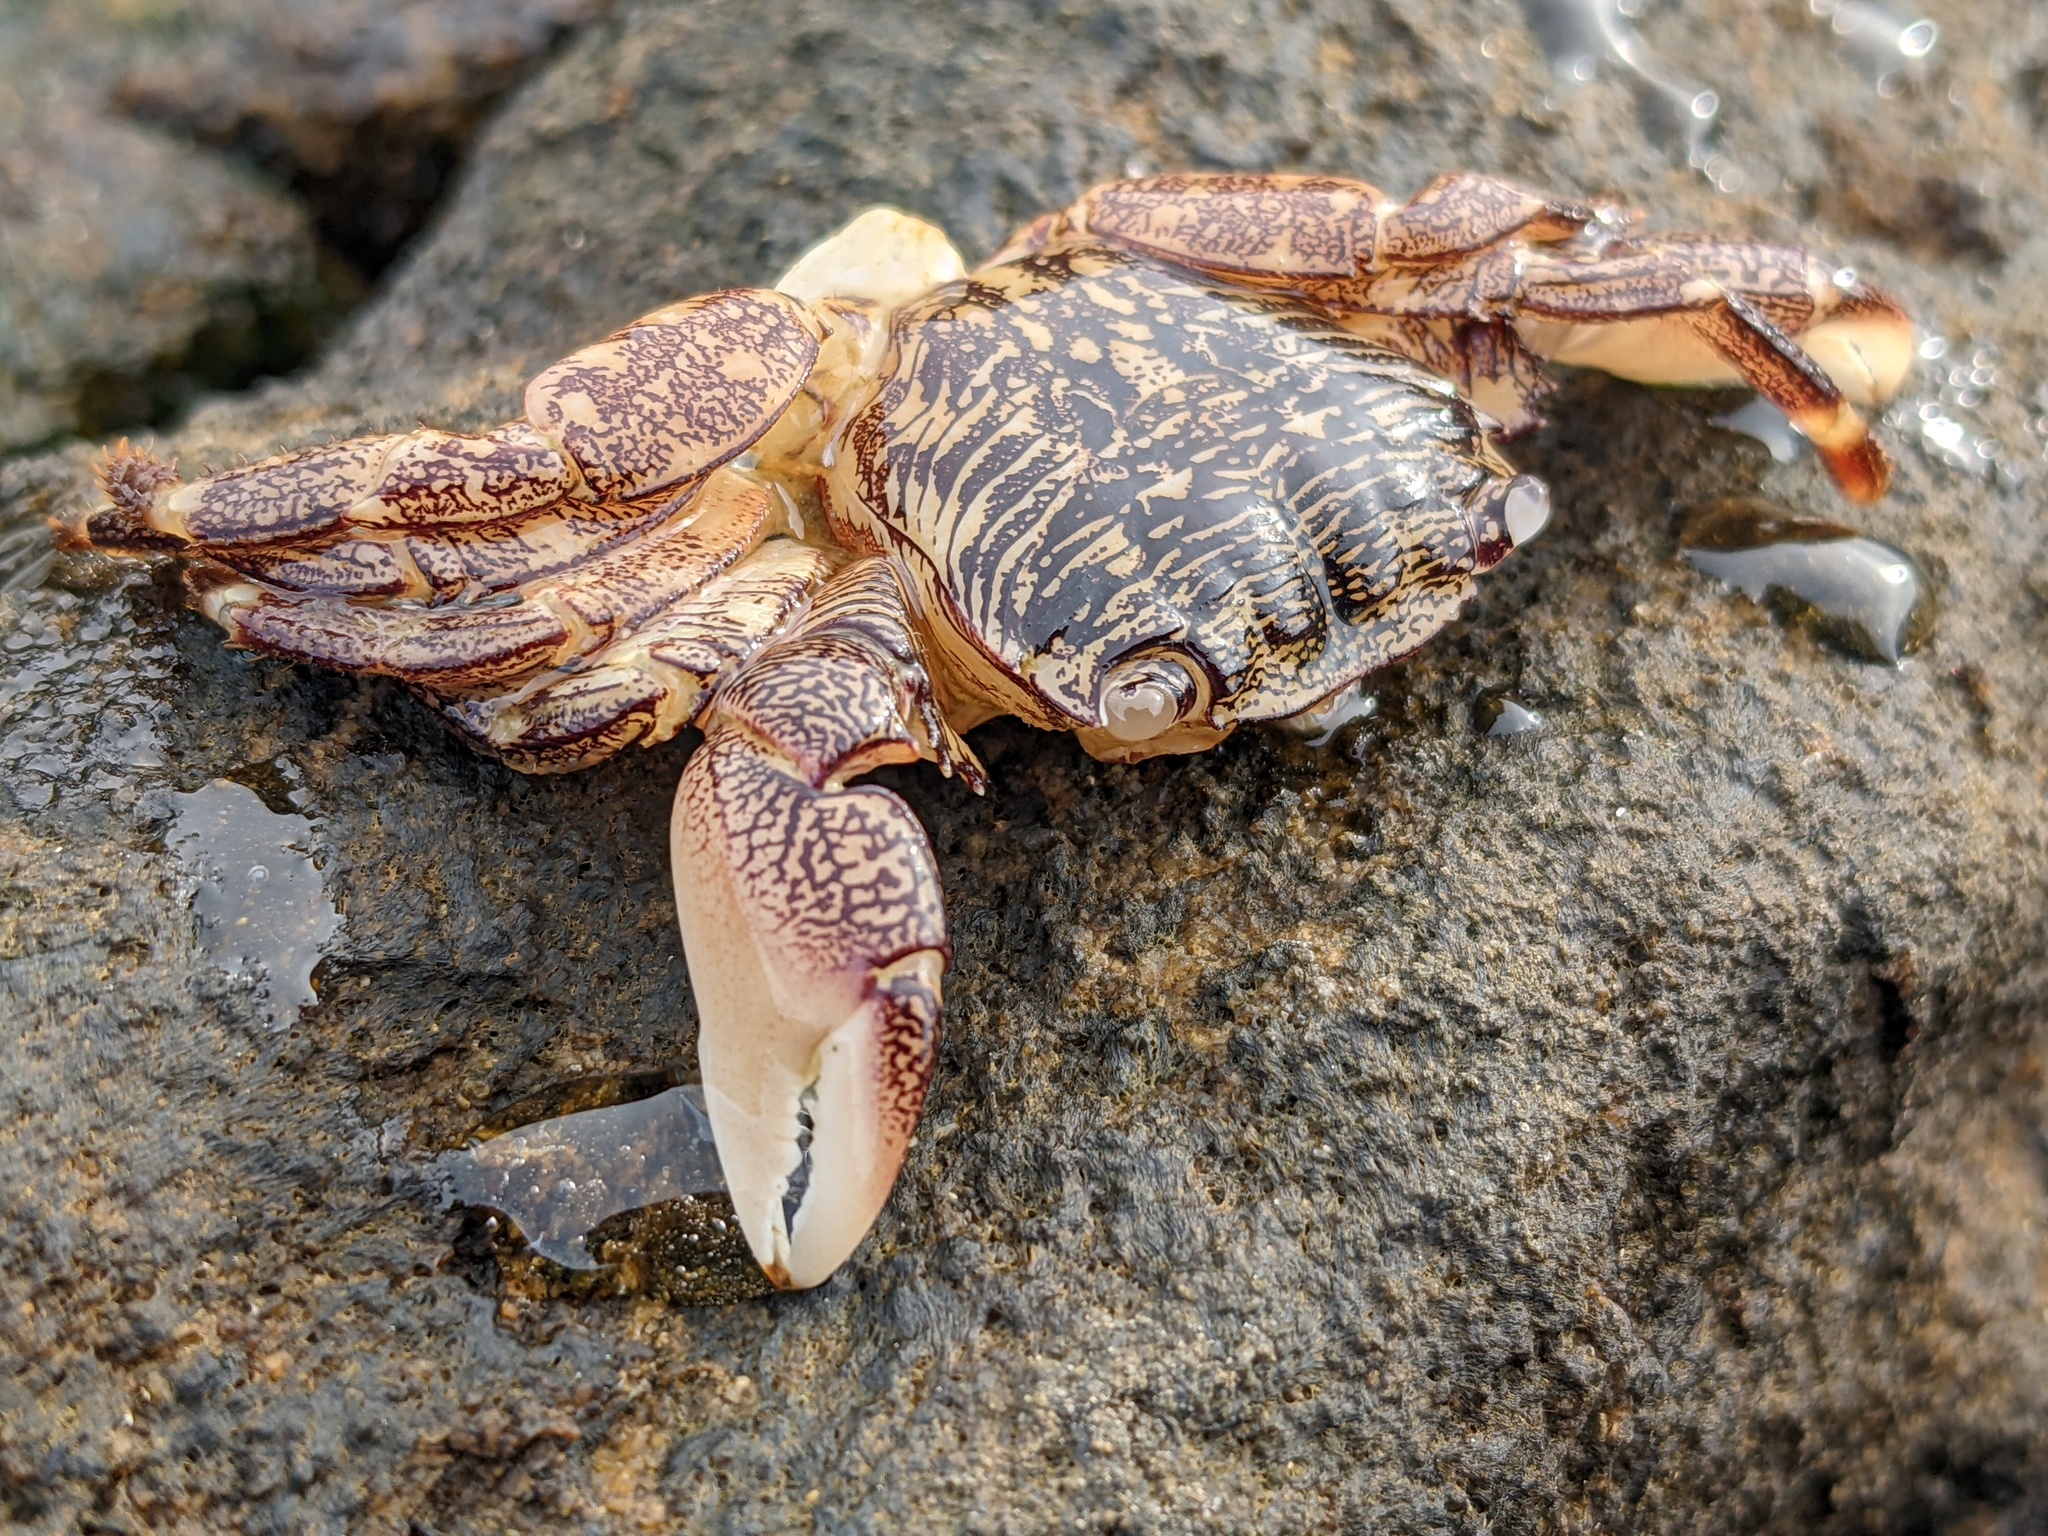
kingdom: Animalia
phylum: Arthropoda
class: Malacostraca
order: Decapoda
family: Grapsidae
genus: Pachygrapsus
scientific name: Pachygrapsus crassipes
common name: Striped shore crab
